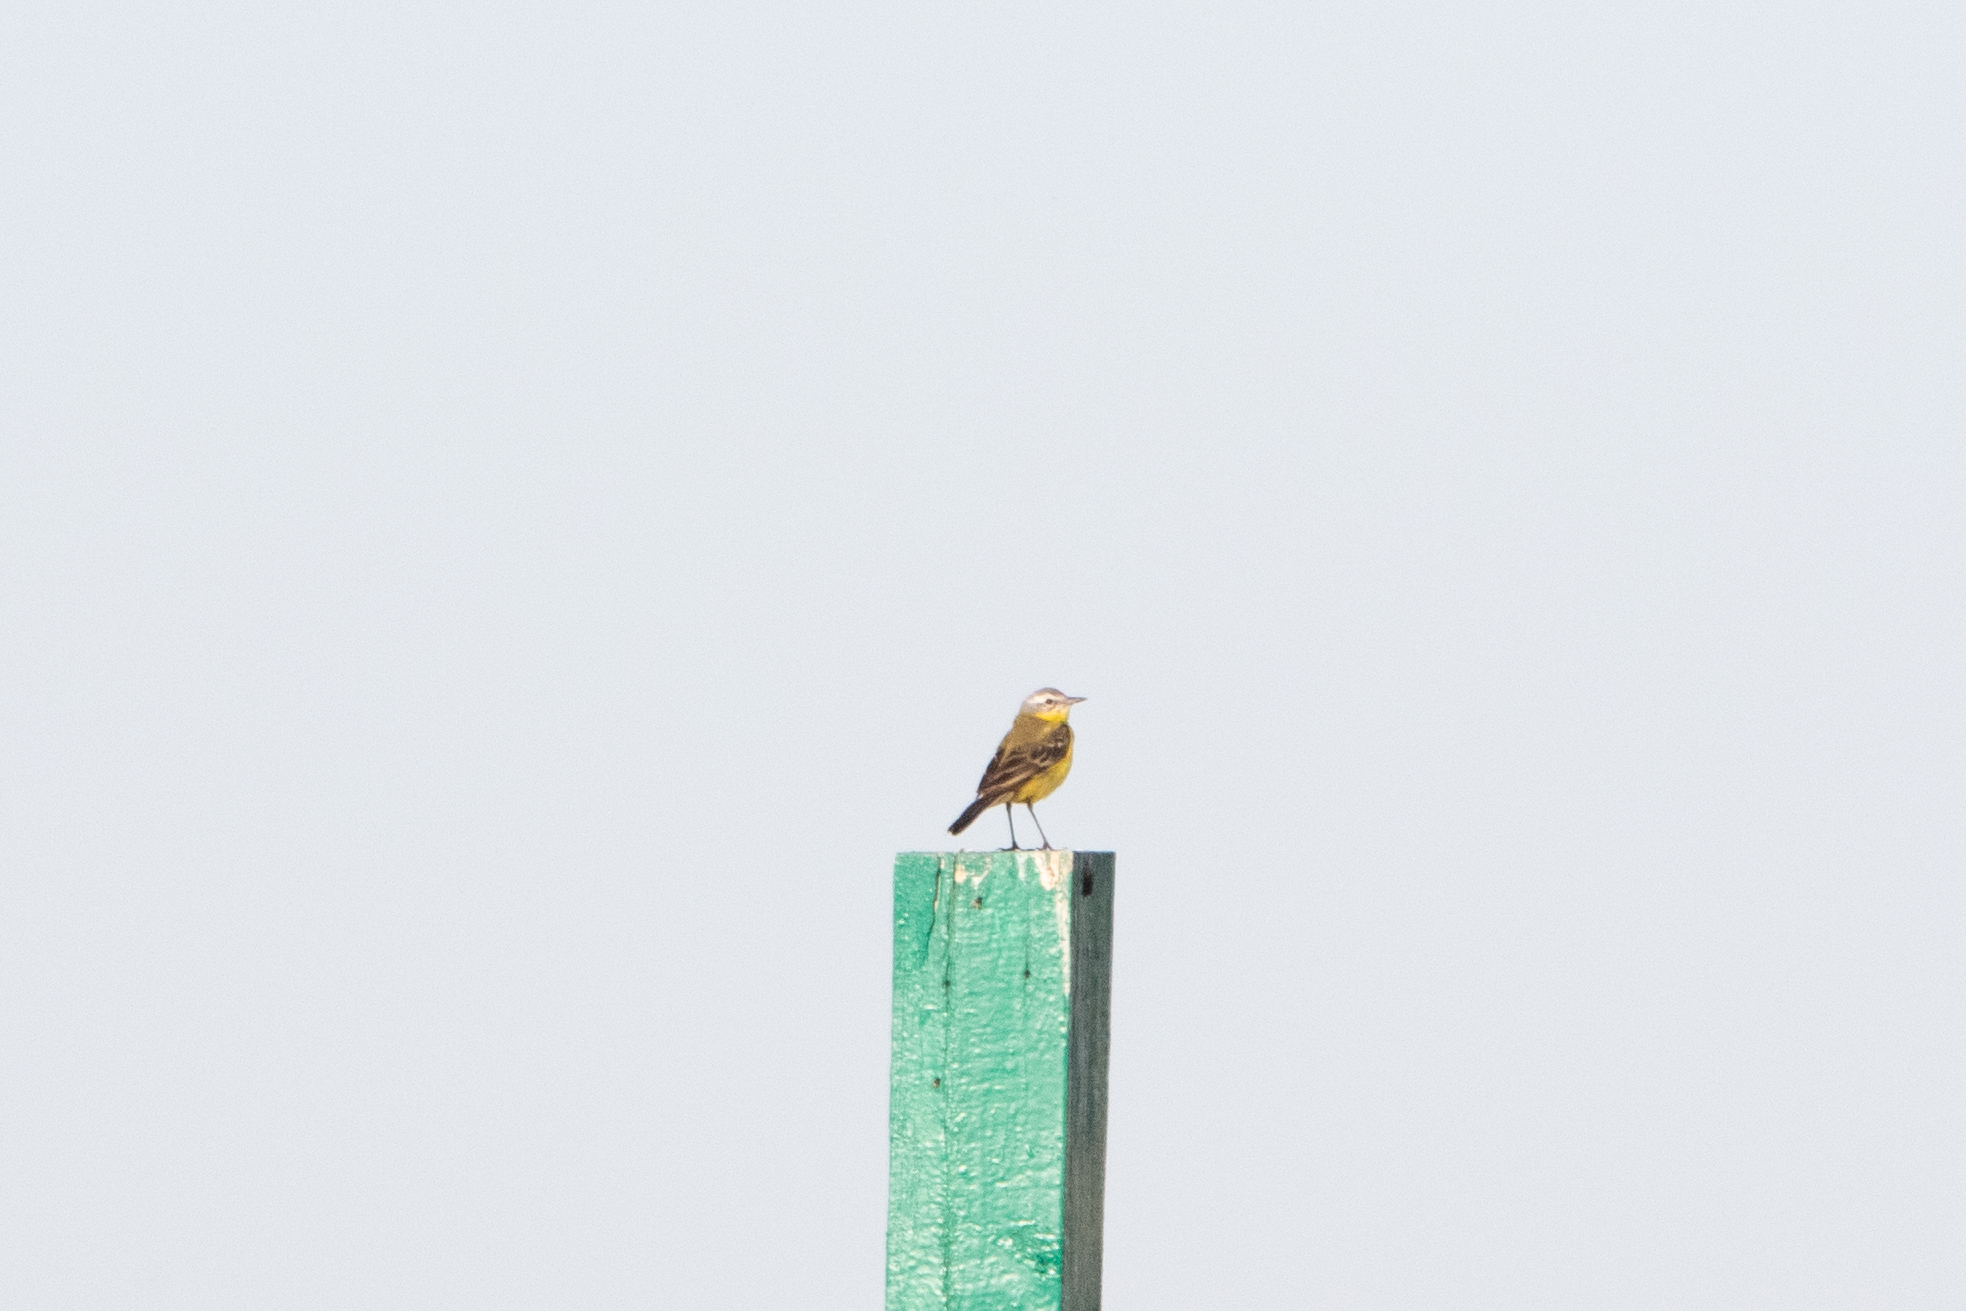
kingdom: Animalia
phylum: Chordata
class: Aves
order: Passeriformes
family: Motacillidae
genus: Motacilla
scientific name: Motacilla flava
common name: Western yellow wagtail
